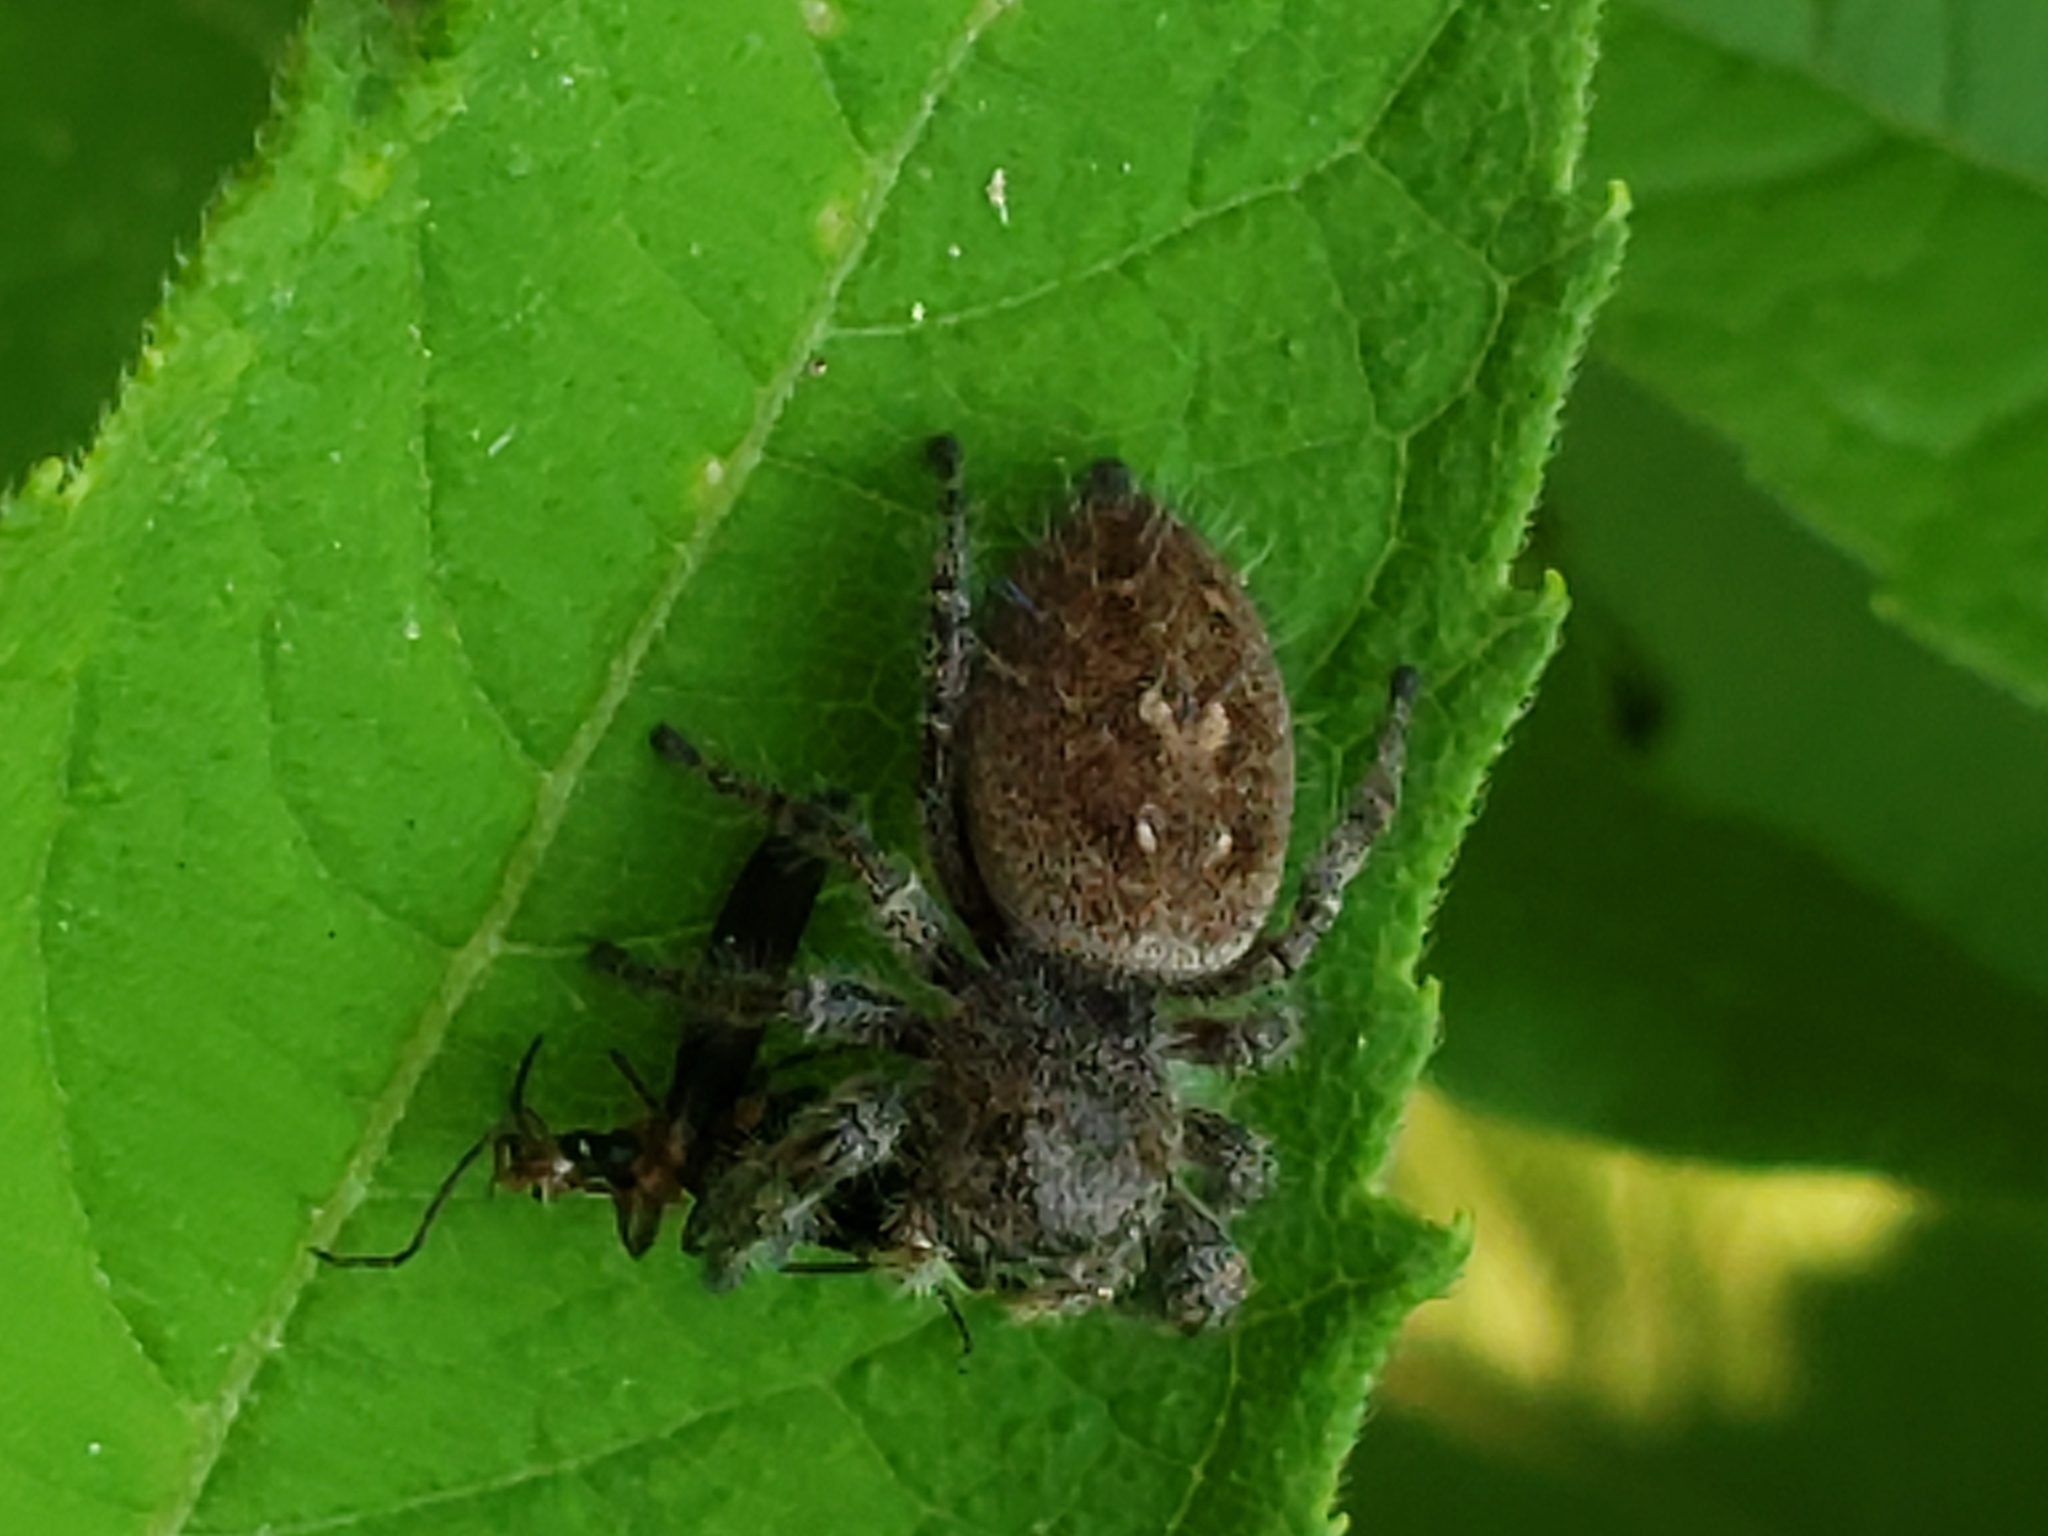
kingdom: Animalia
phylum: Arthropoda
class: Arachnida
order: Araneae
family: Salticidae
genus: Phidippus
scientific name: Phidippus princeps
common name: Grayish jumping spider
